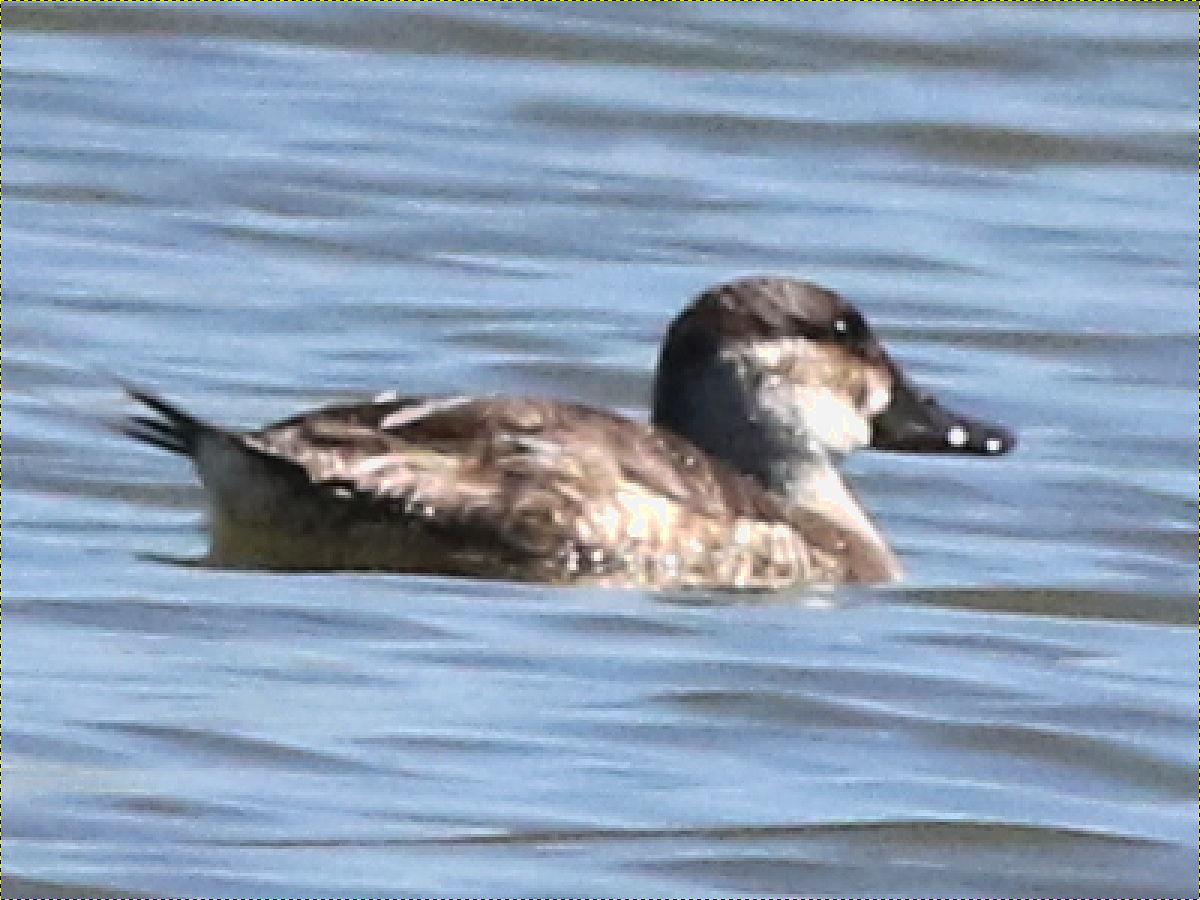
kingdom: Animalia
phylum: Chordata
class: Aves
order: Anseriformes
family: Anatidae
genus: Oxyura
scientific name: Oxyura jamaicensis
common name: Ruddy duck
